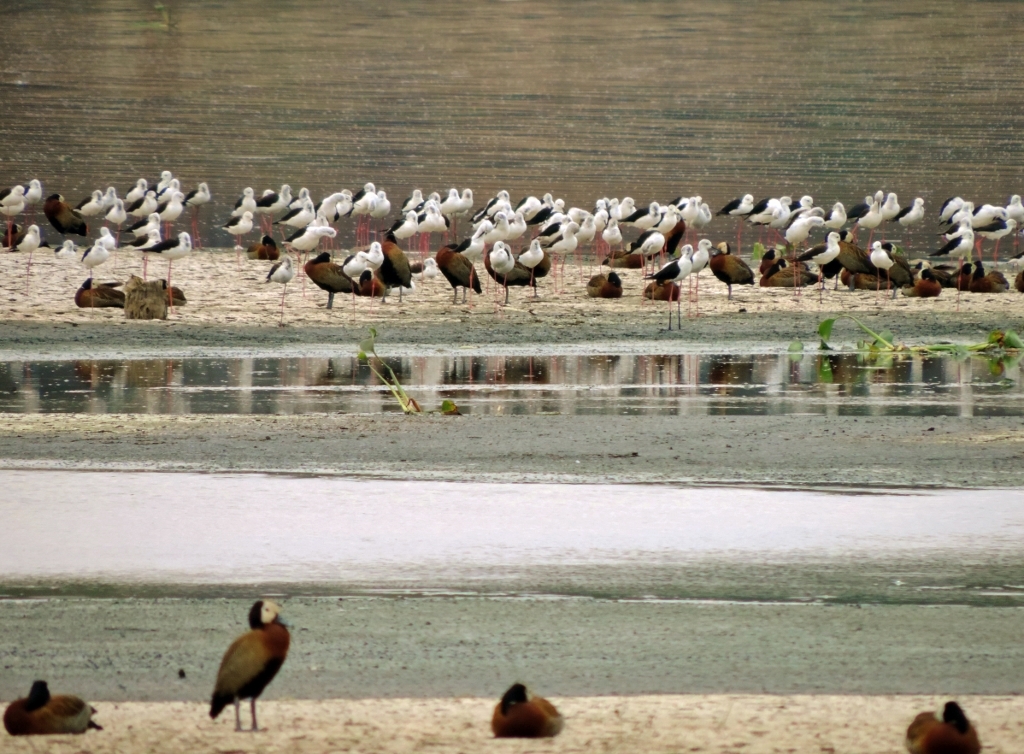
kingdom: Animalia
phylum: Chordata
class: Aves
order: Anseriformes
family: Anatidae
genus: Dendrocygna
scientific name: Dendrocygna viduata
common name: White-faced whistling duck
